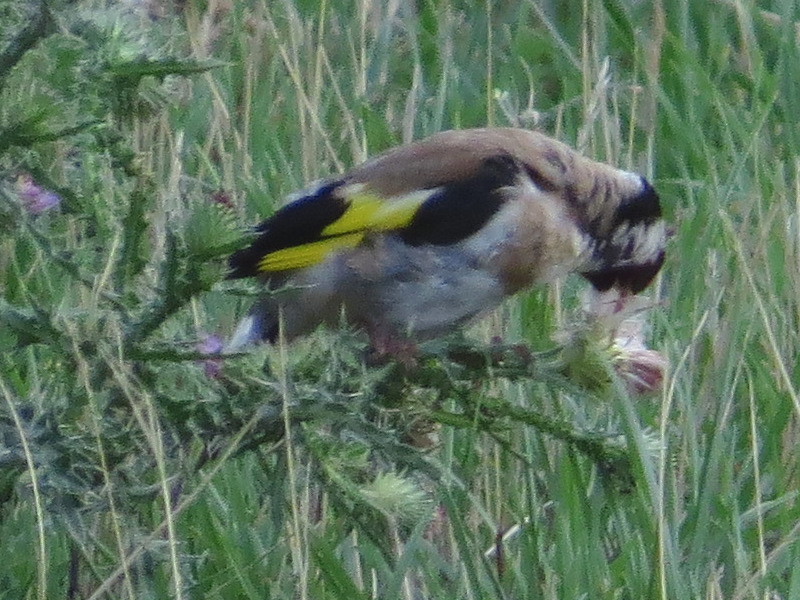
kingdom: Animalia
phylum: Chordata
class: Aves
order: Passeriformes
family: Fringillidae
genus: Carduelis
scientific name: Carduelis carduelis
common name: European goldfinch
